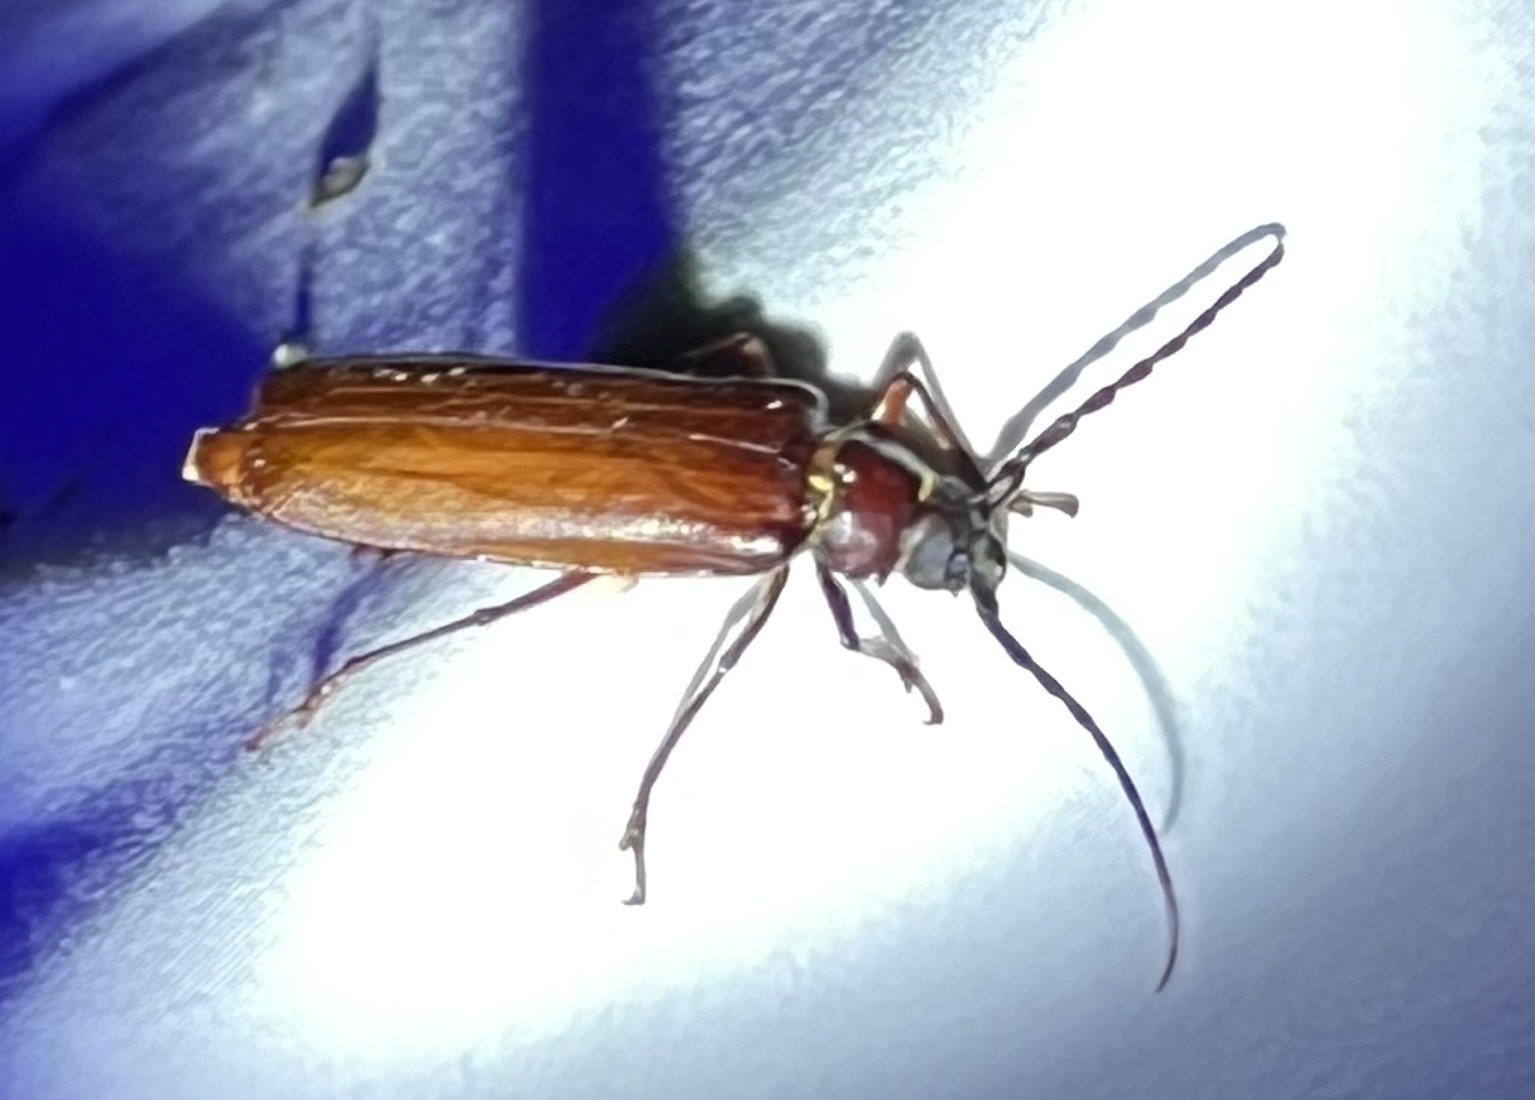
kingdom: Animalia
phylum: Arthropoda
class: Insecta
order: Coleoptera
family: Cerambycidae
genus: Orthosoma
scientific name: Orthosoma brunneum
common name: Brown prionid beetle
